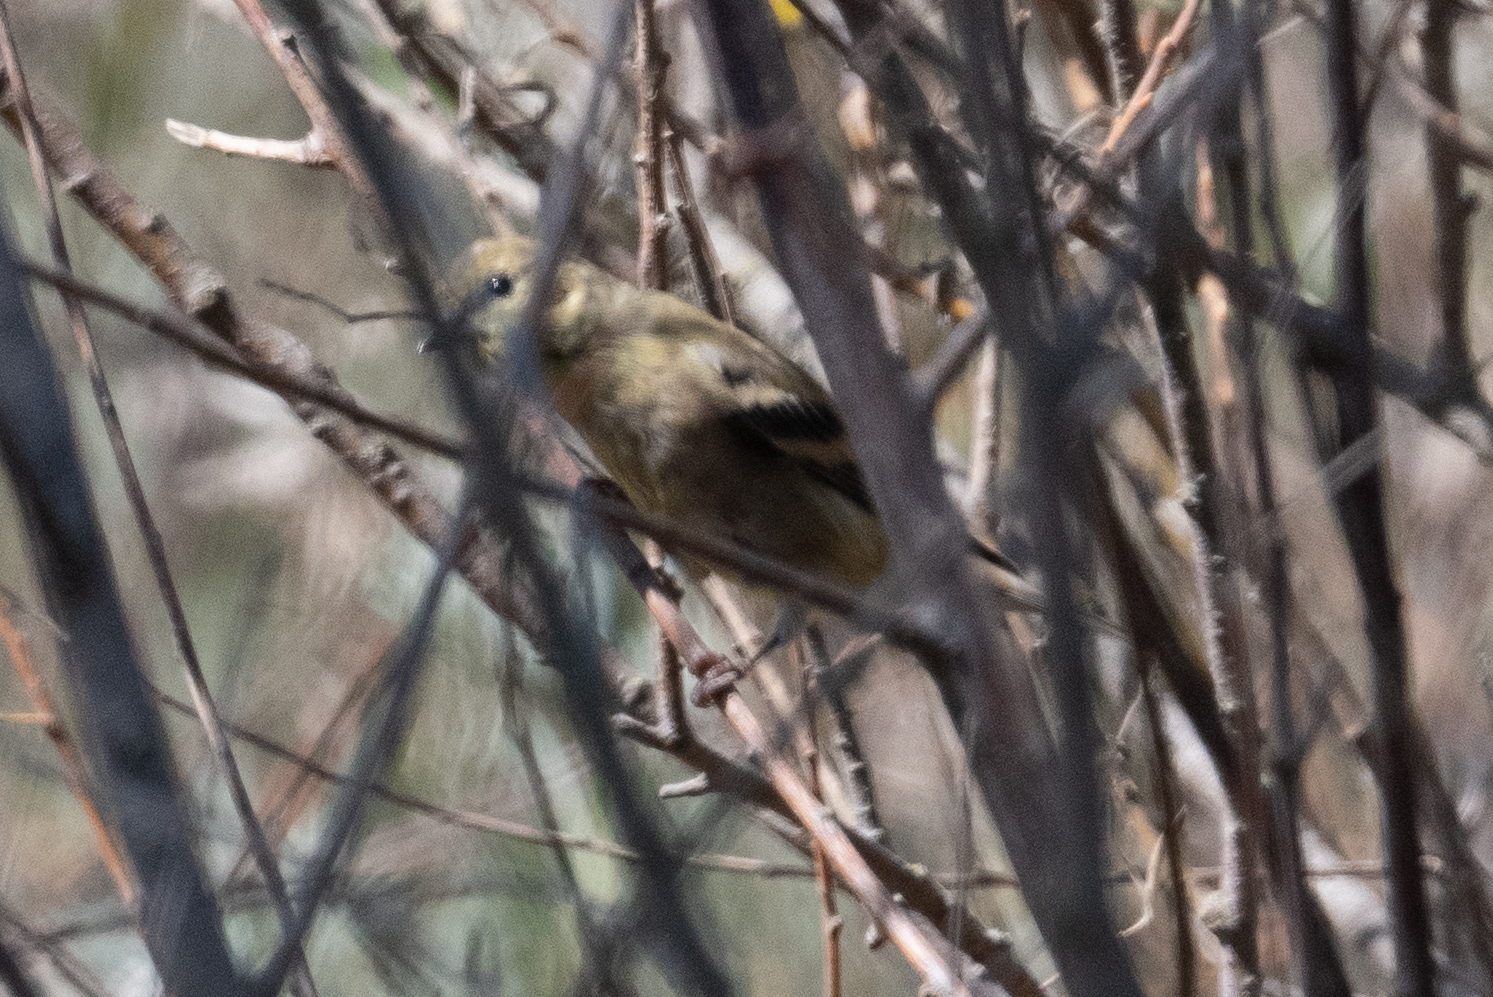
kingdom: Animalia
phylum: Chordata
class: Aves
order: Passeriformes
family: Fringillidae
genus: Spinus
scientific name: Spinus tristis
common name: American goldfinch
